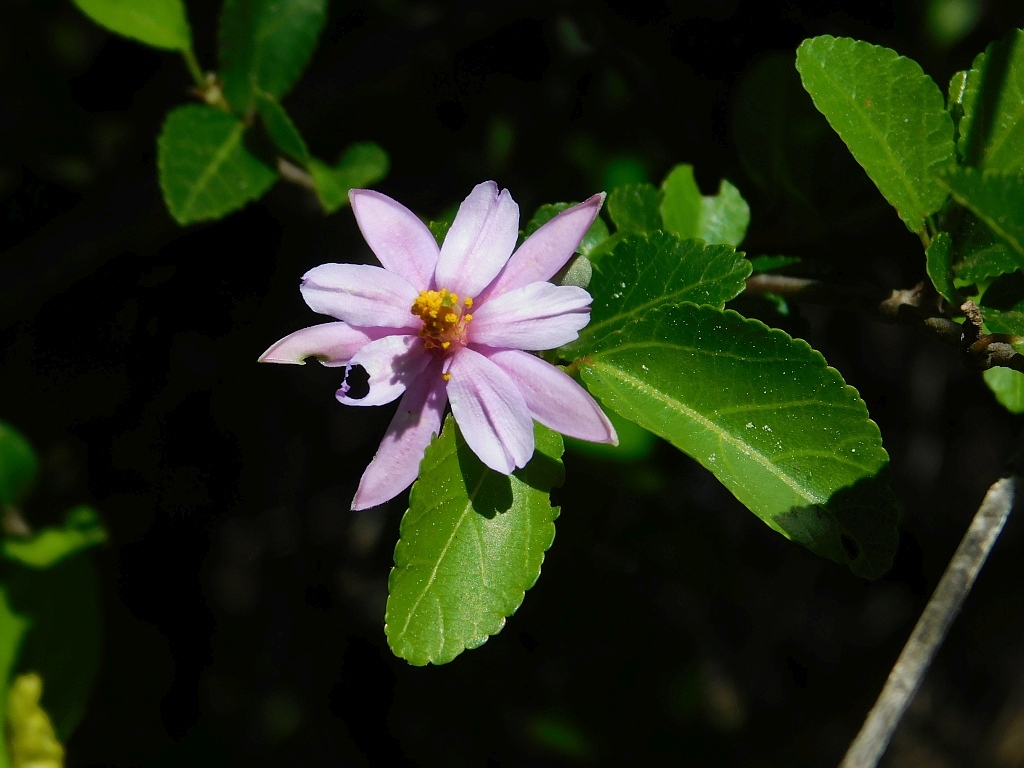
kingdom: Plantae
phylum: Tracheophyta
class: Magnoliopsida
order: Malvales
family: Malvaceae
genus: Grewia
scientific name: Grewia occidentalis
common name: Crossberry
